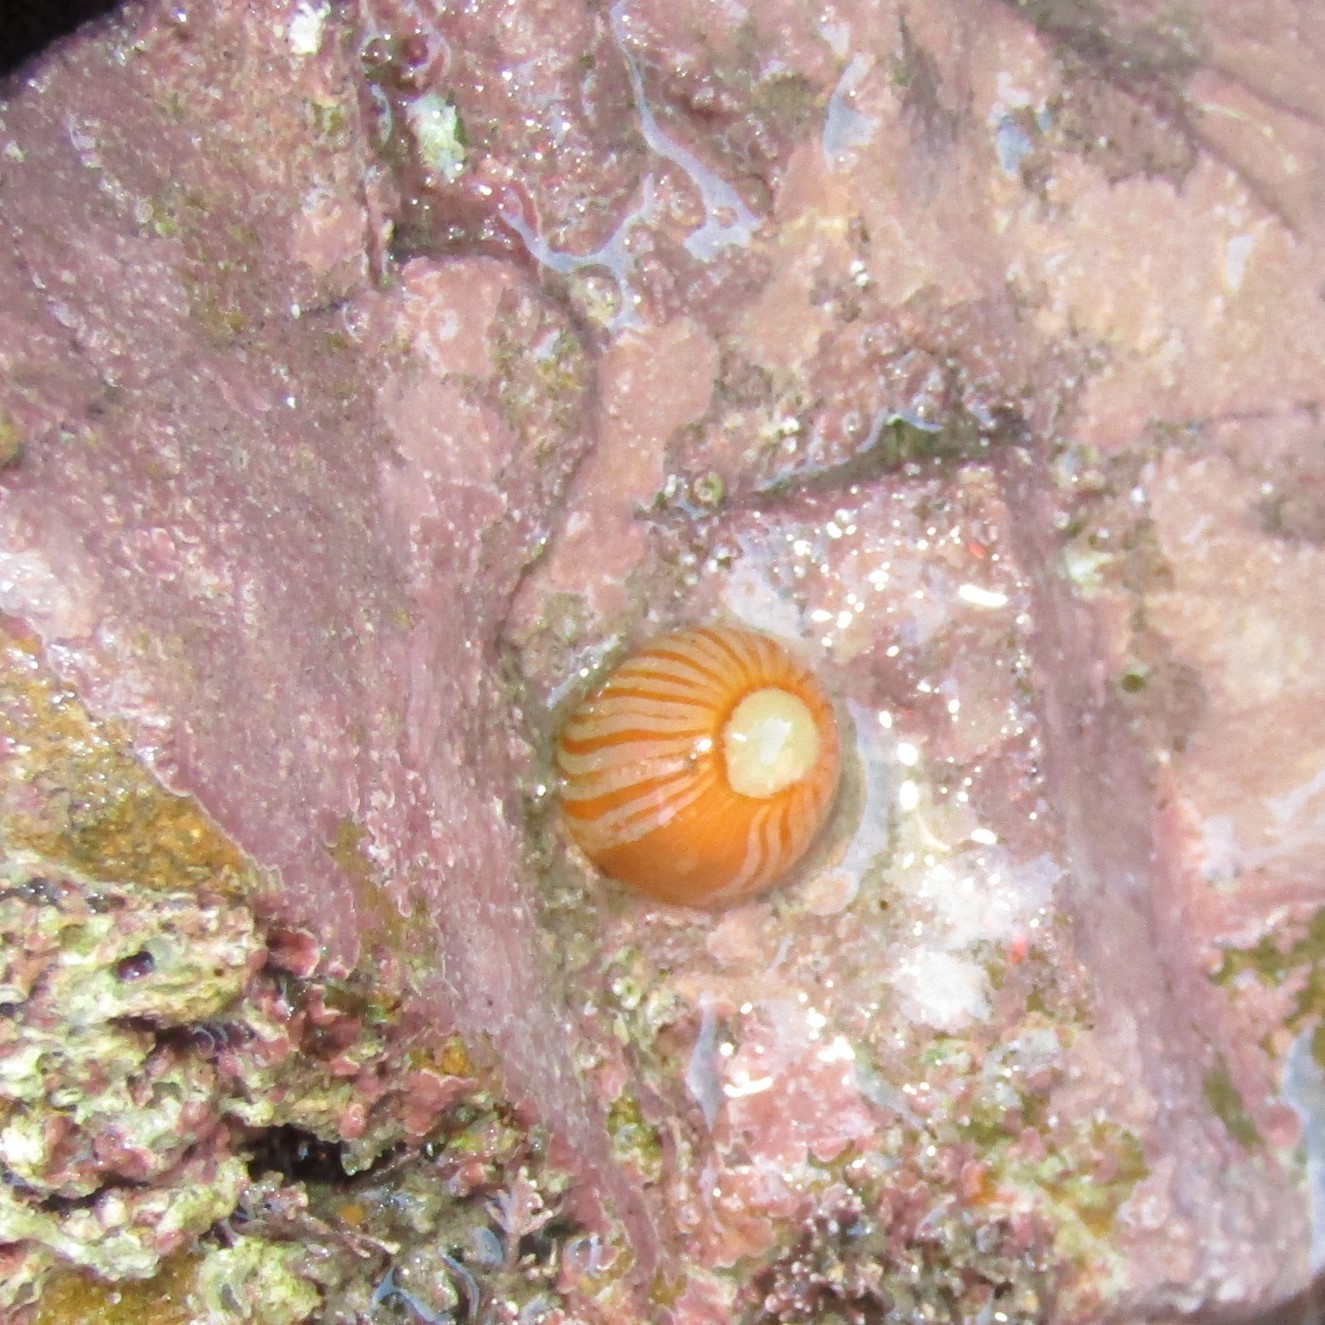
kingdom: Animalia
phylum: Cnidaria
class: Anthozoa
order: Actiniaria
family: Sagartiidae
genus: Anthothoe
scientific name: Anthothoe albocincta
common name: Orange striped anemone
